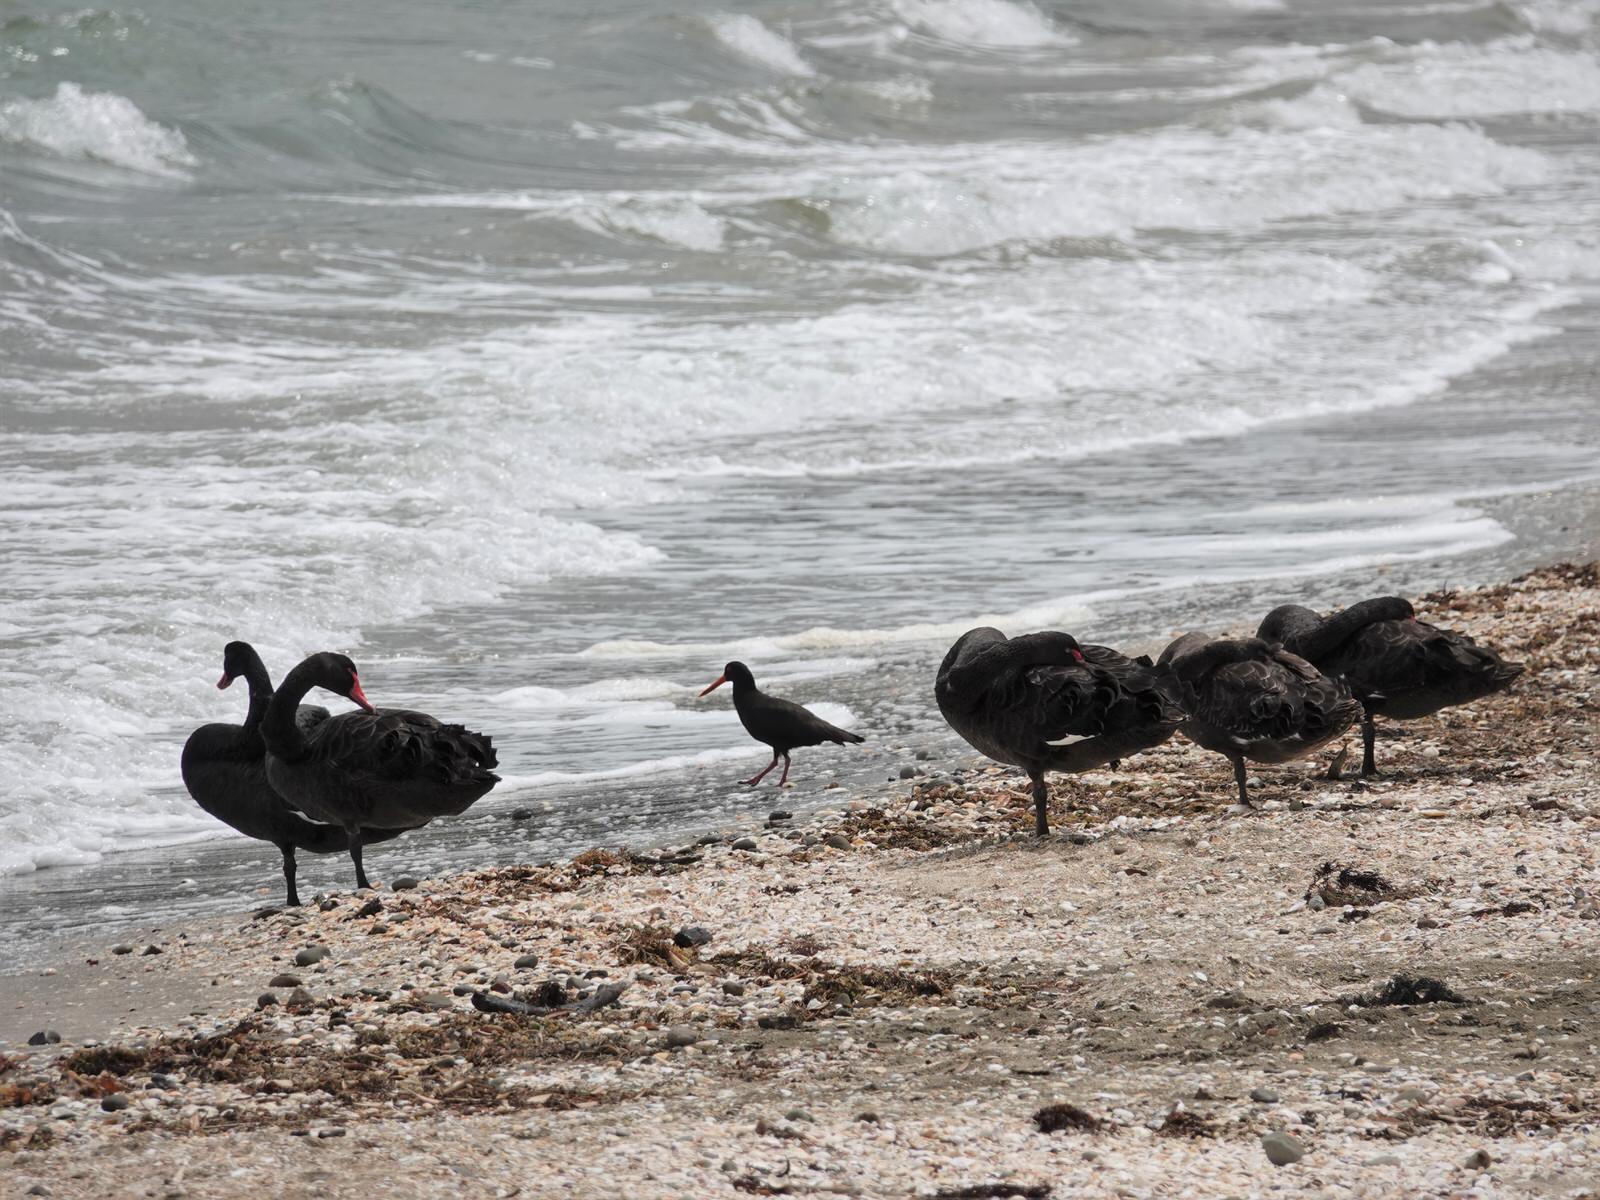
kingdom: Animalia
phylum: Chordata
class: Aves
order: Charadriiformes
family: Haematopodidae
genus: Haematopus
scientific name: Haematopus unicolor
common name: Variable oystercatcher
